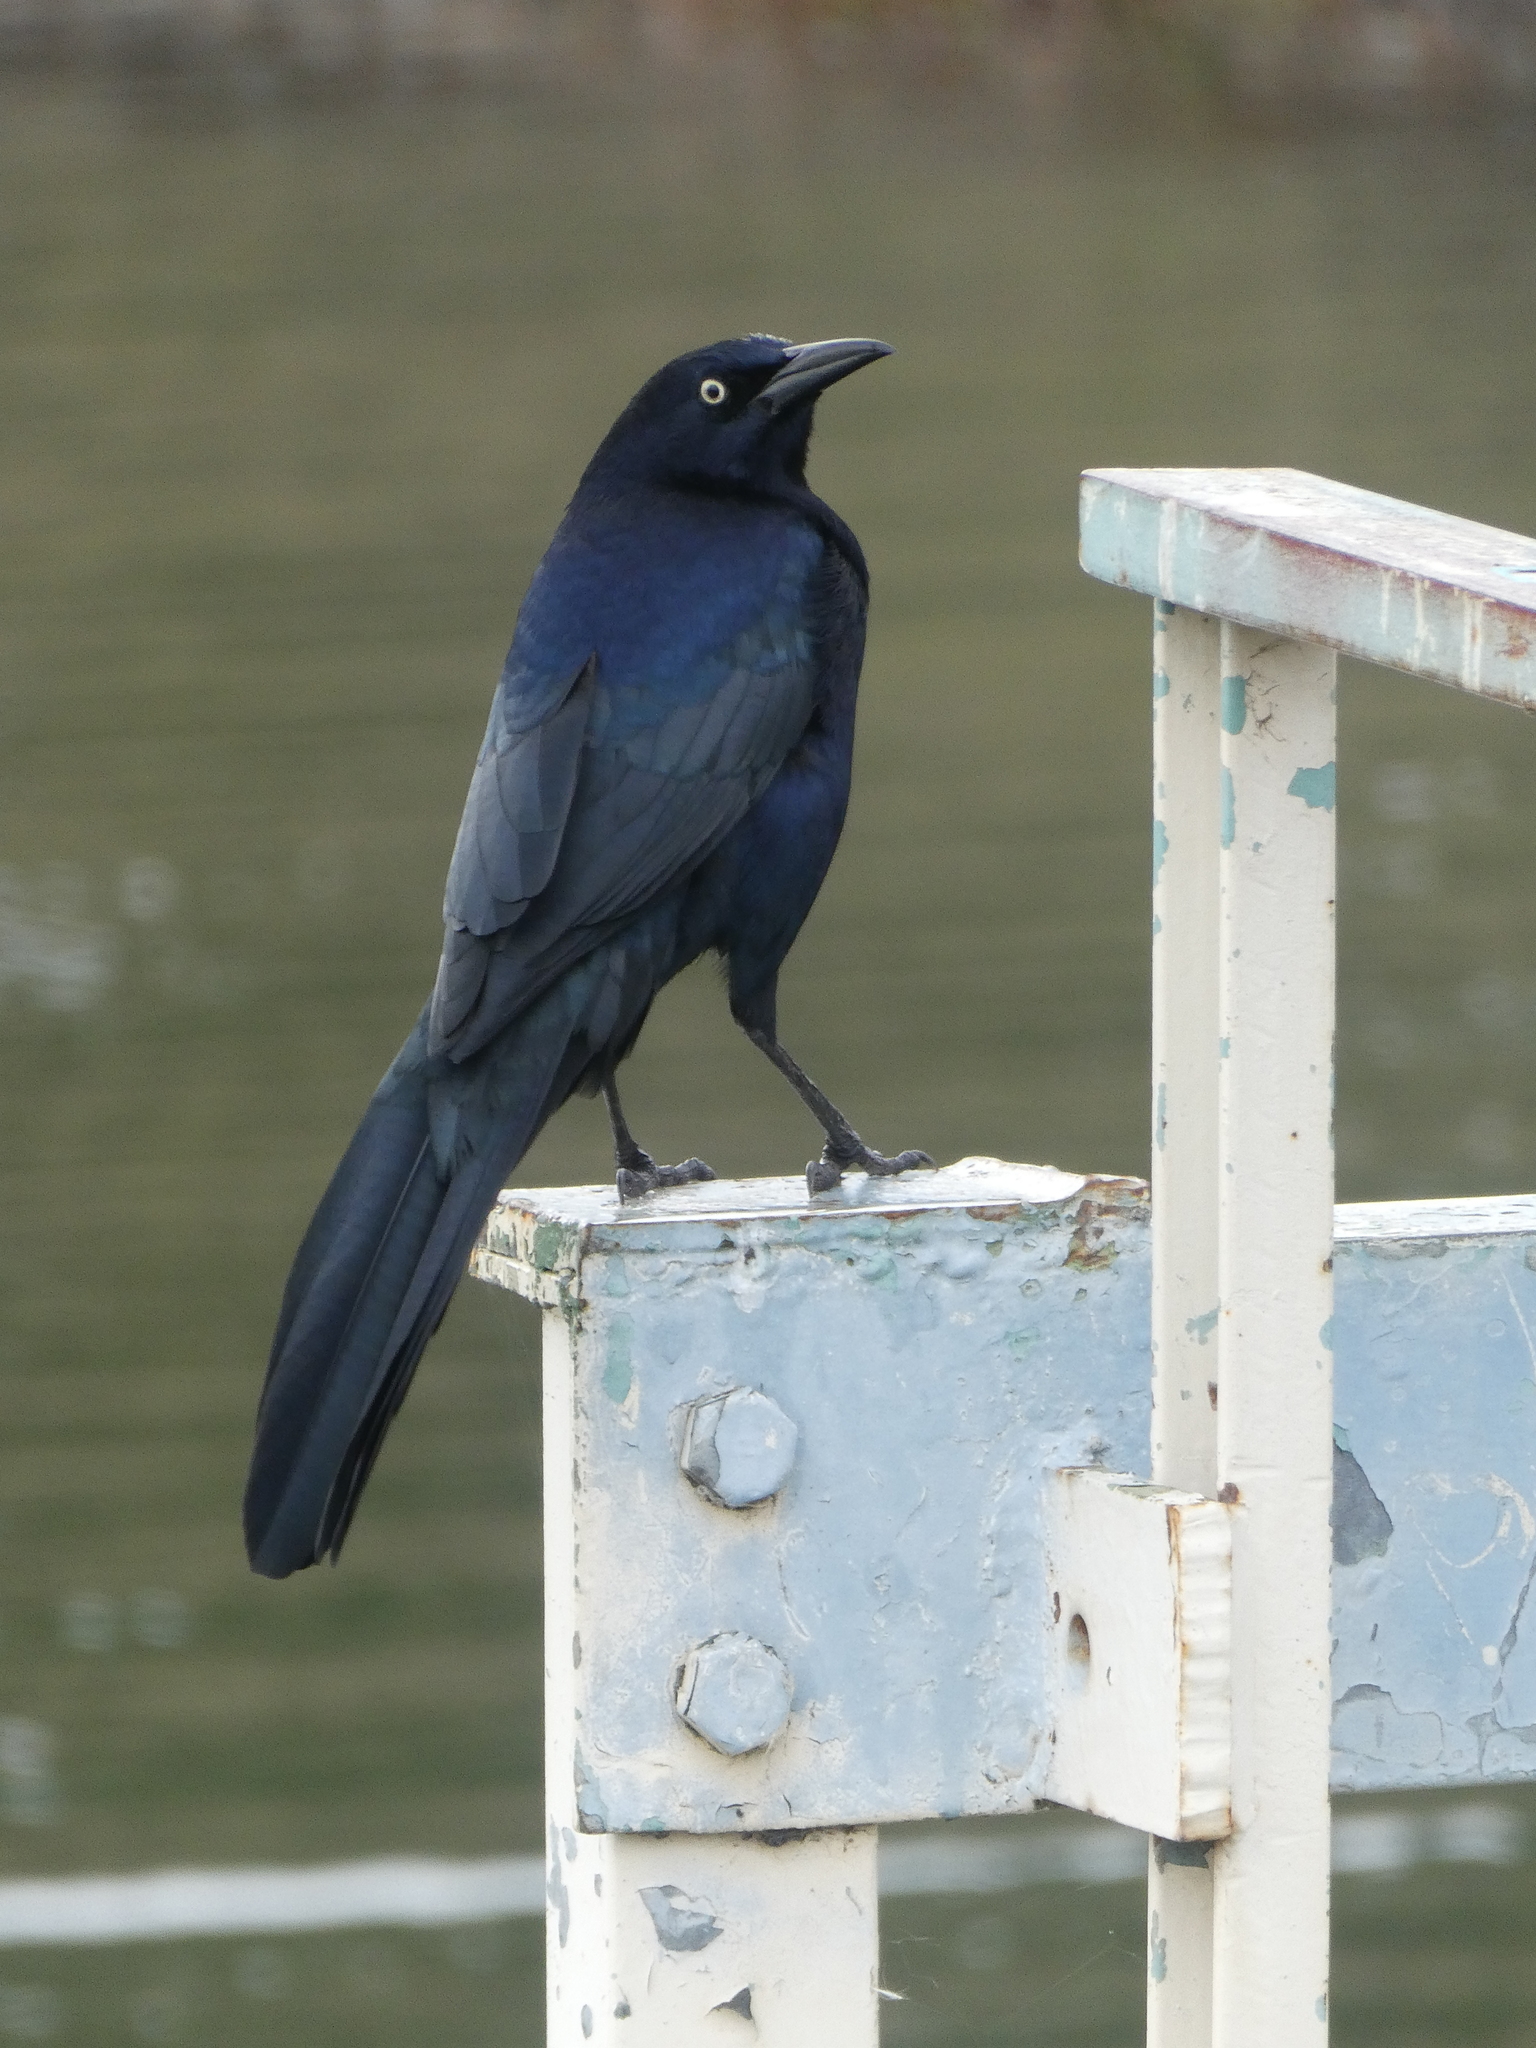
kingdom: Animalia
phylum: Chordata
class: Aves
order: Passeriformes
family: Icteridae
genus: Quiscalus
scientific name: Quiscalus mexicanus
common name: Great-tailed grackle
